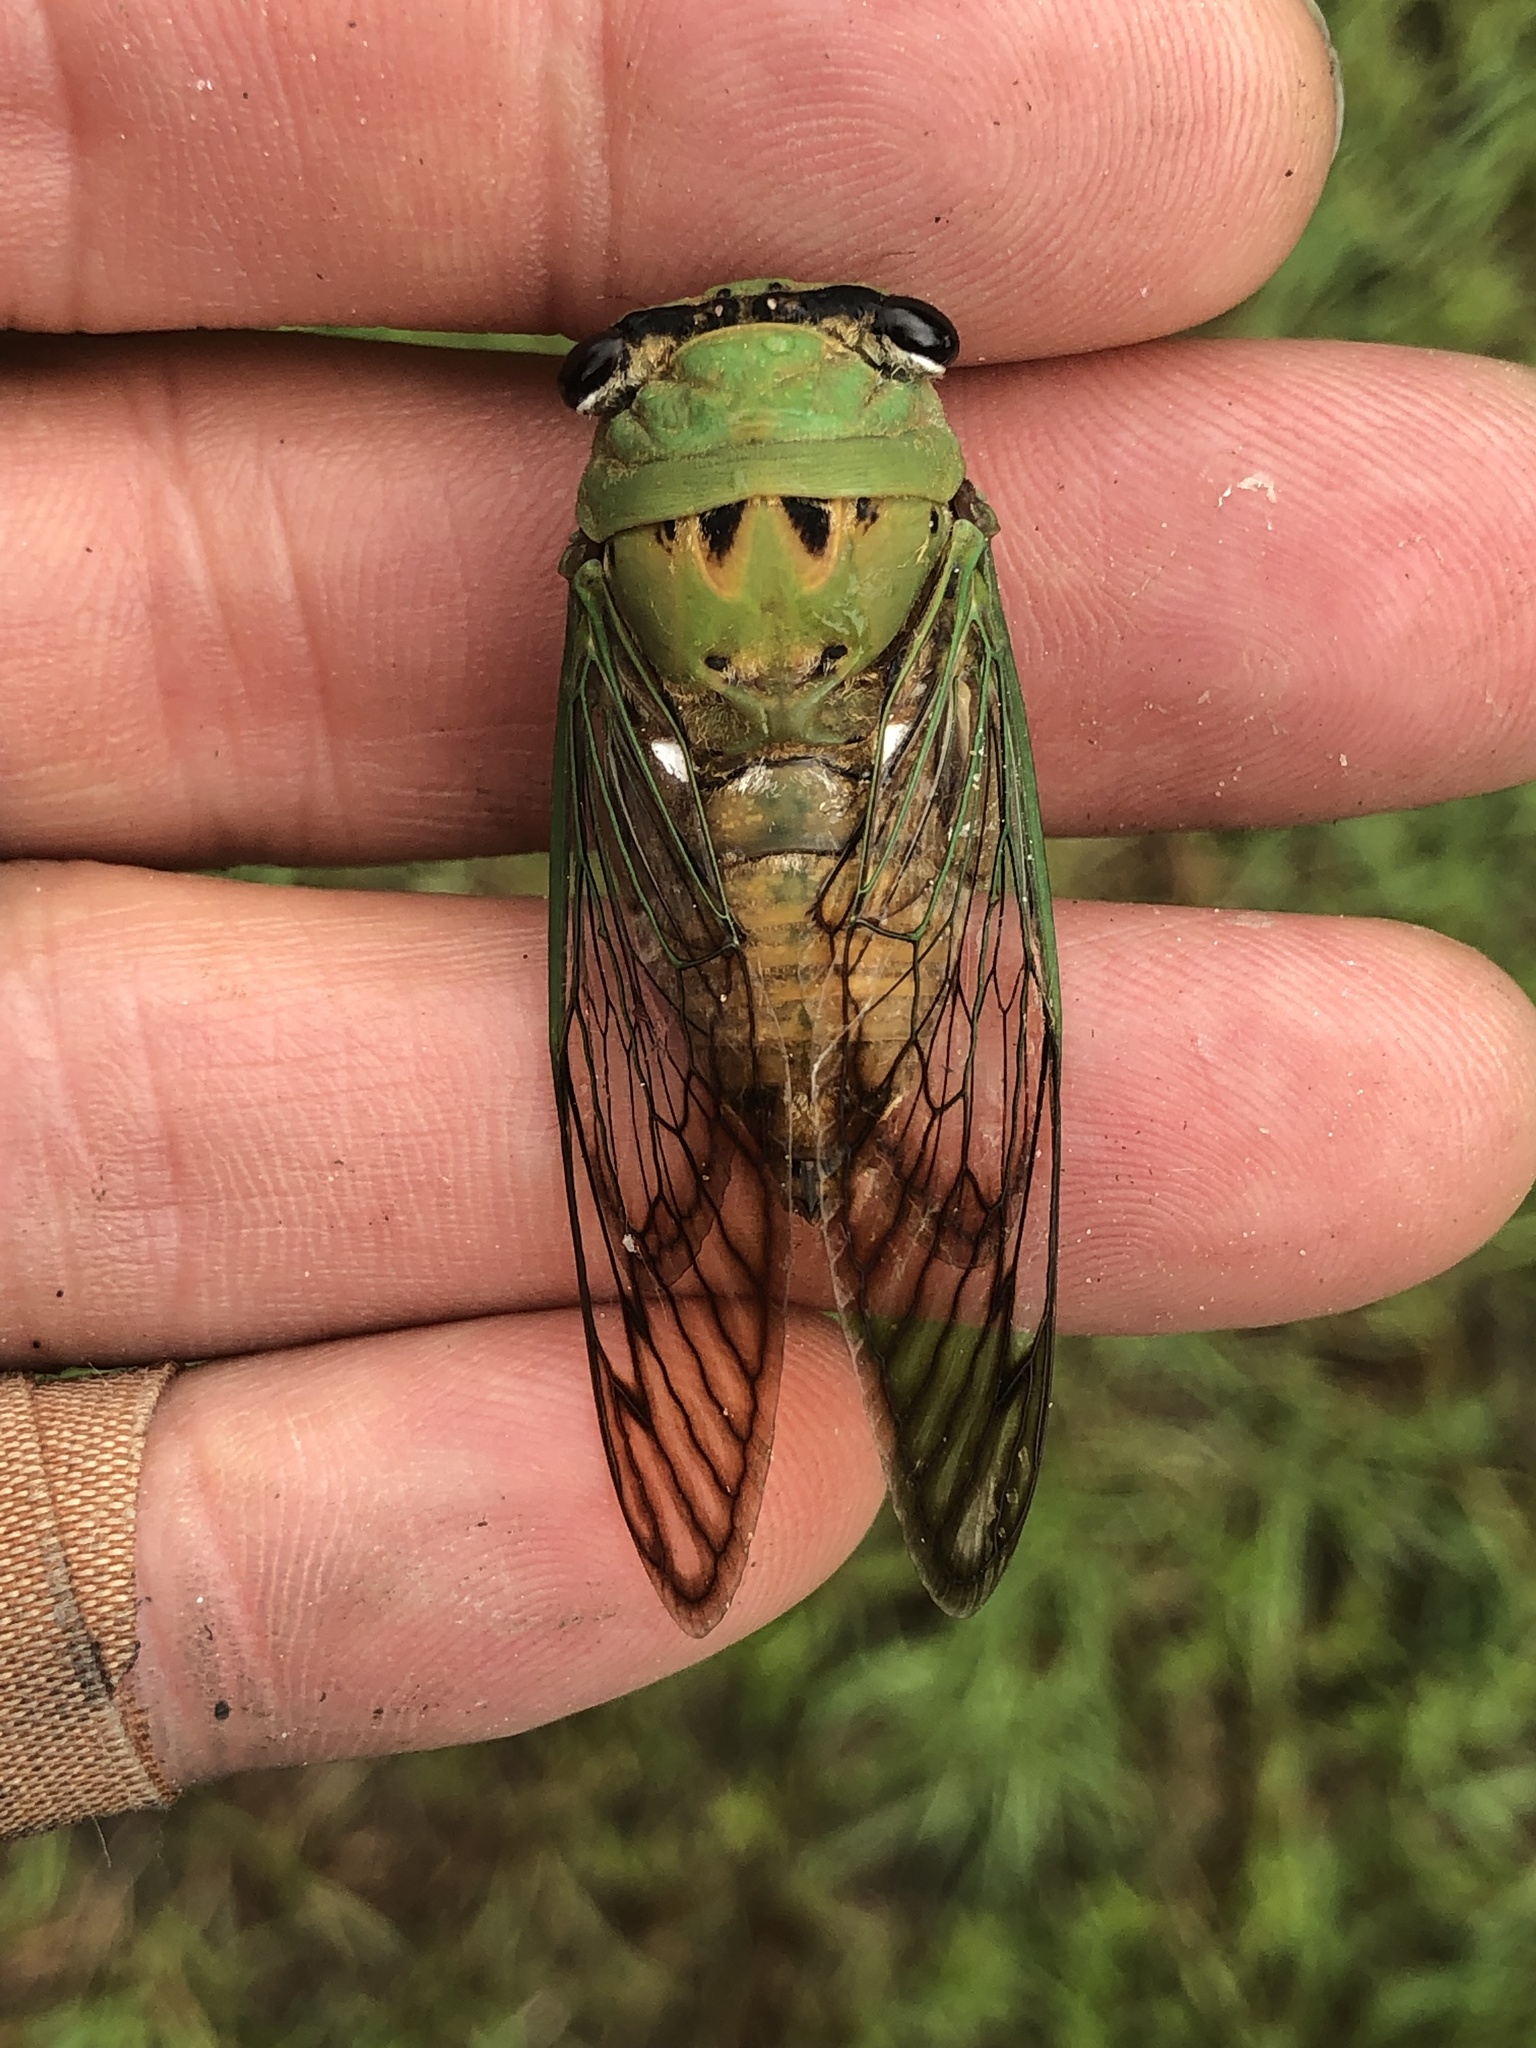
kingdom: Animalia
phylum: Arthropoda
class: Insecta
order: Hemiptera
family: Cicadidae
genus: Neotibicen
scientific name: Neotibicen superbus
